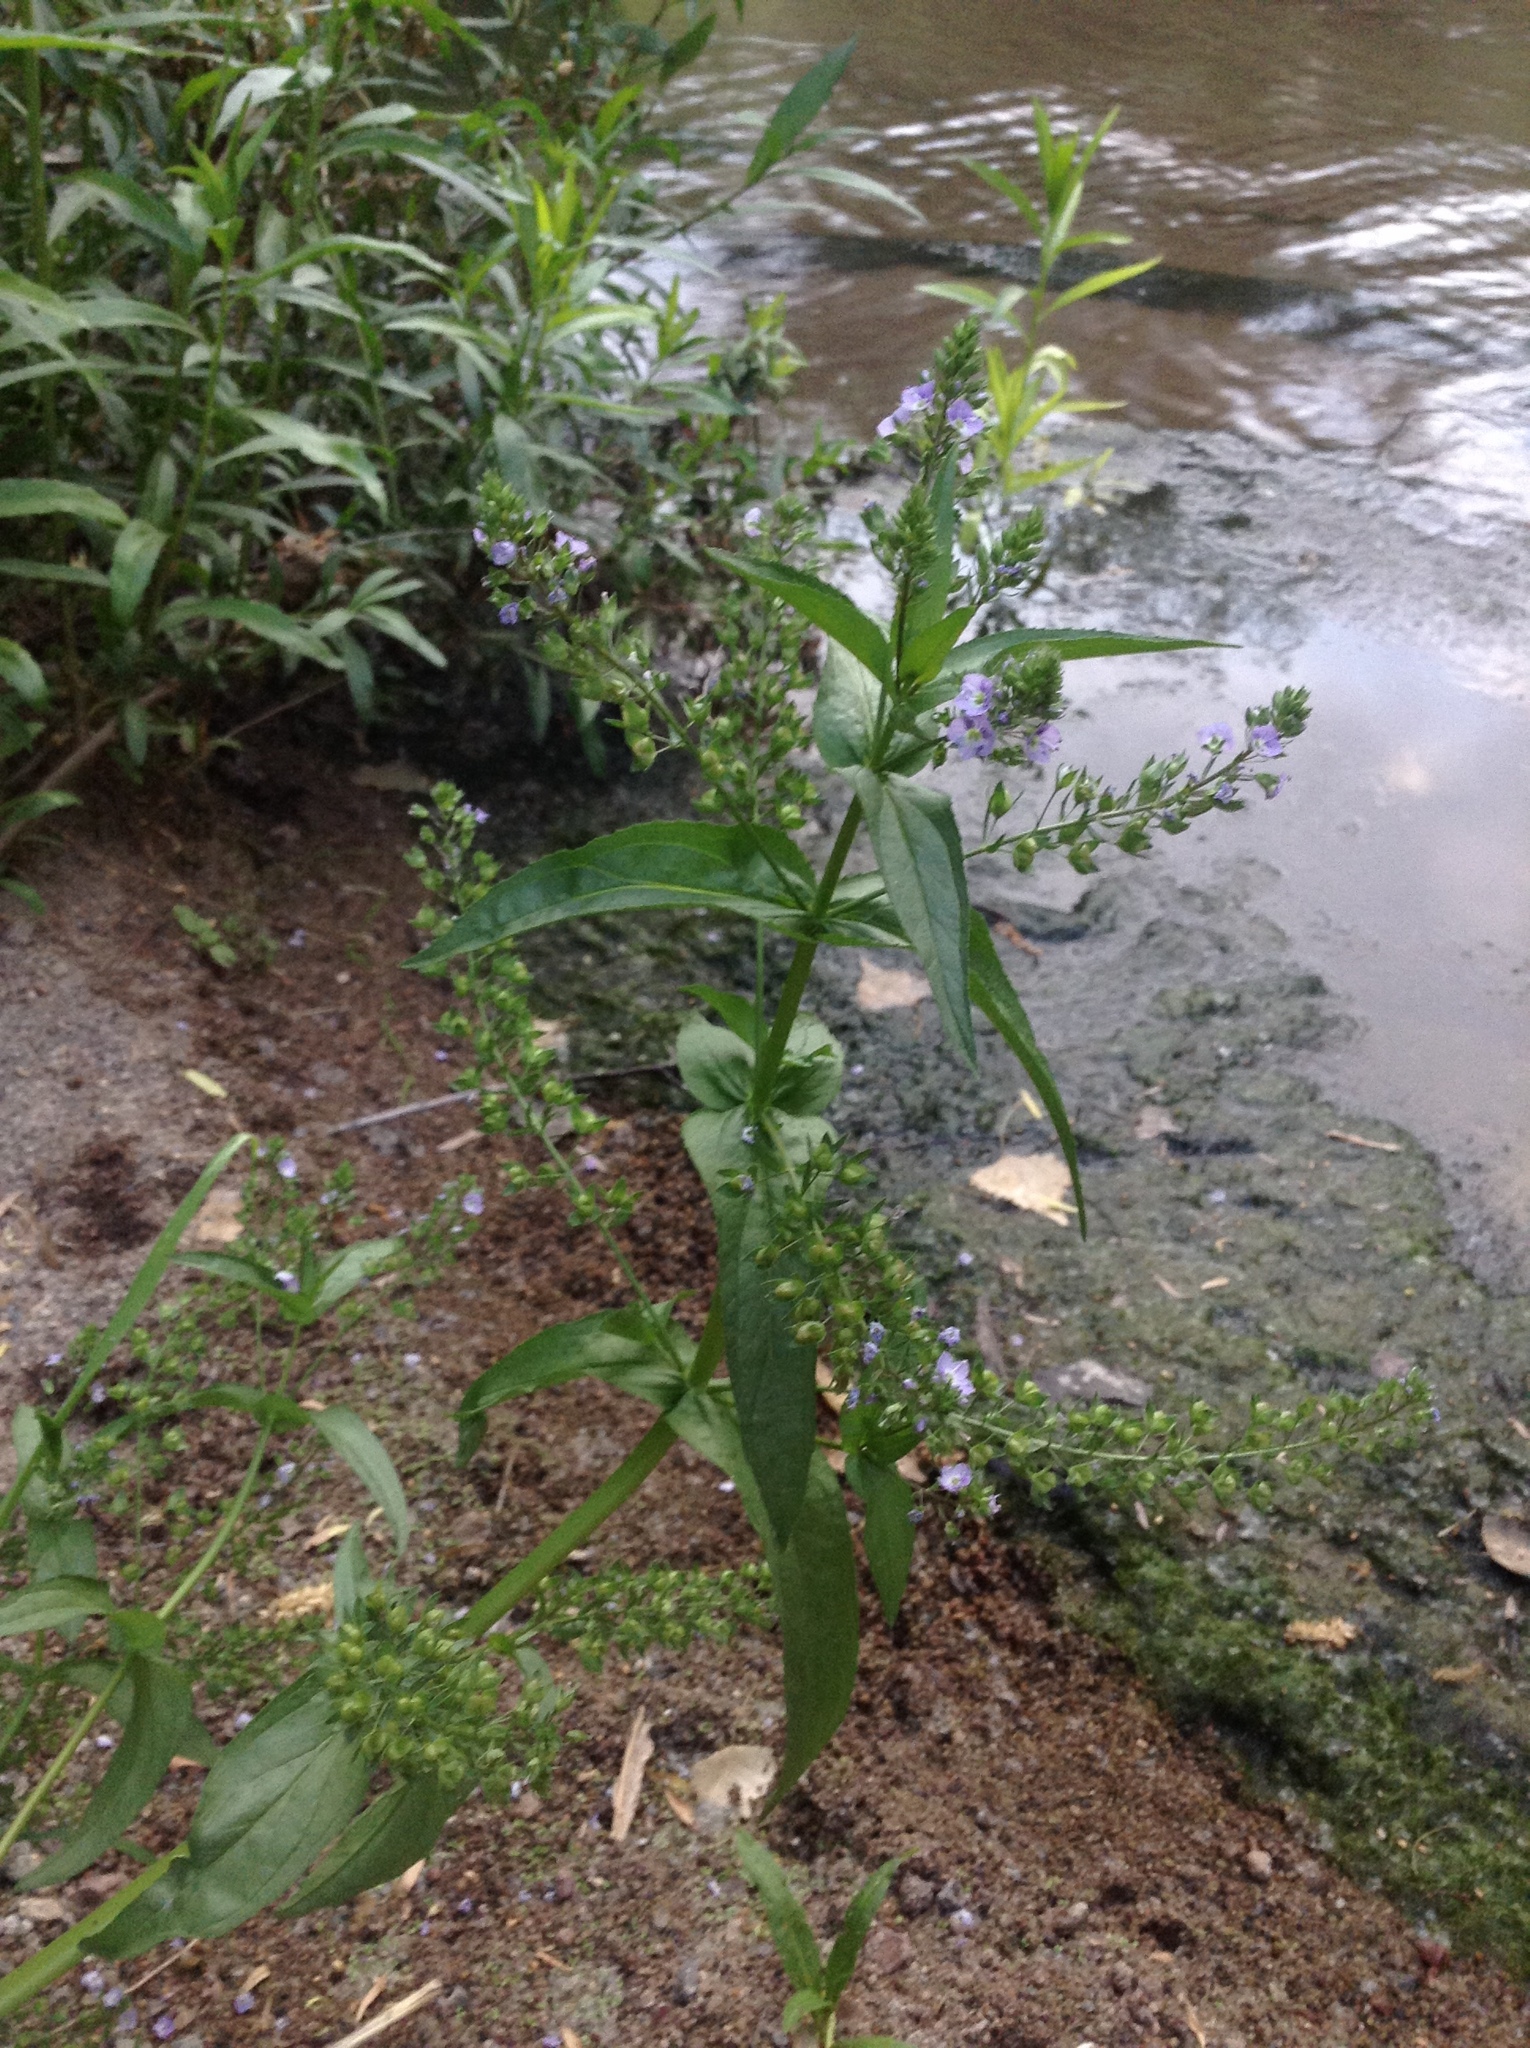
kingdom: Plantae
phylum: Tracheophyta
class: Magnoliopsida
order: Lamiales
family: Plantaginaceae
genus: Veronica
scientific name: Veronica anagallis-aquatica
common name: Water speedwell
